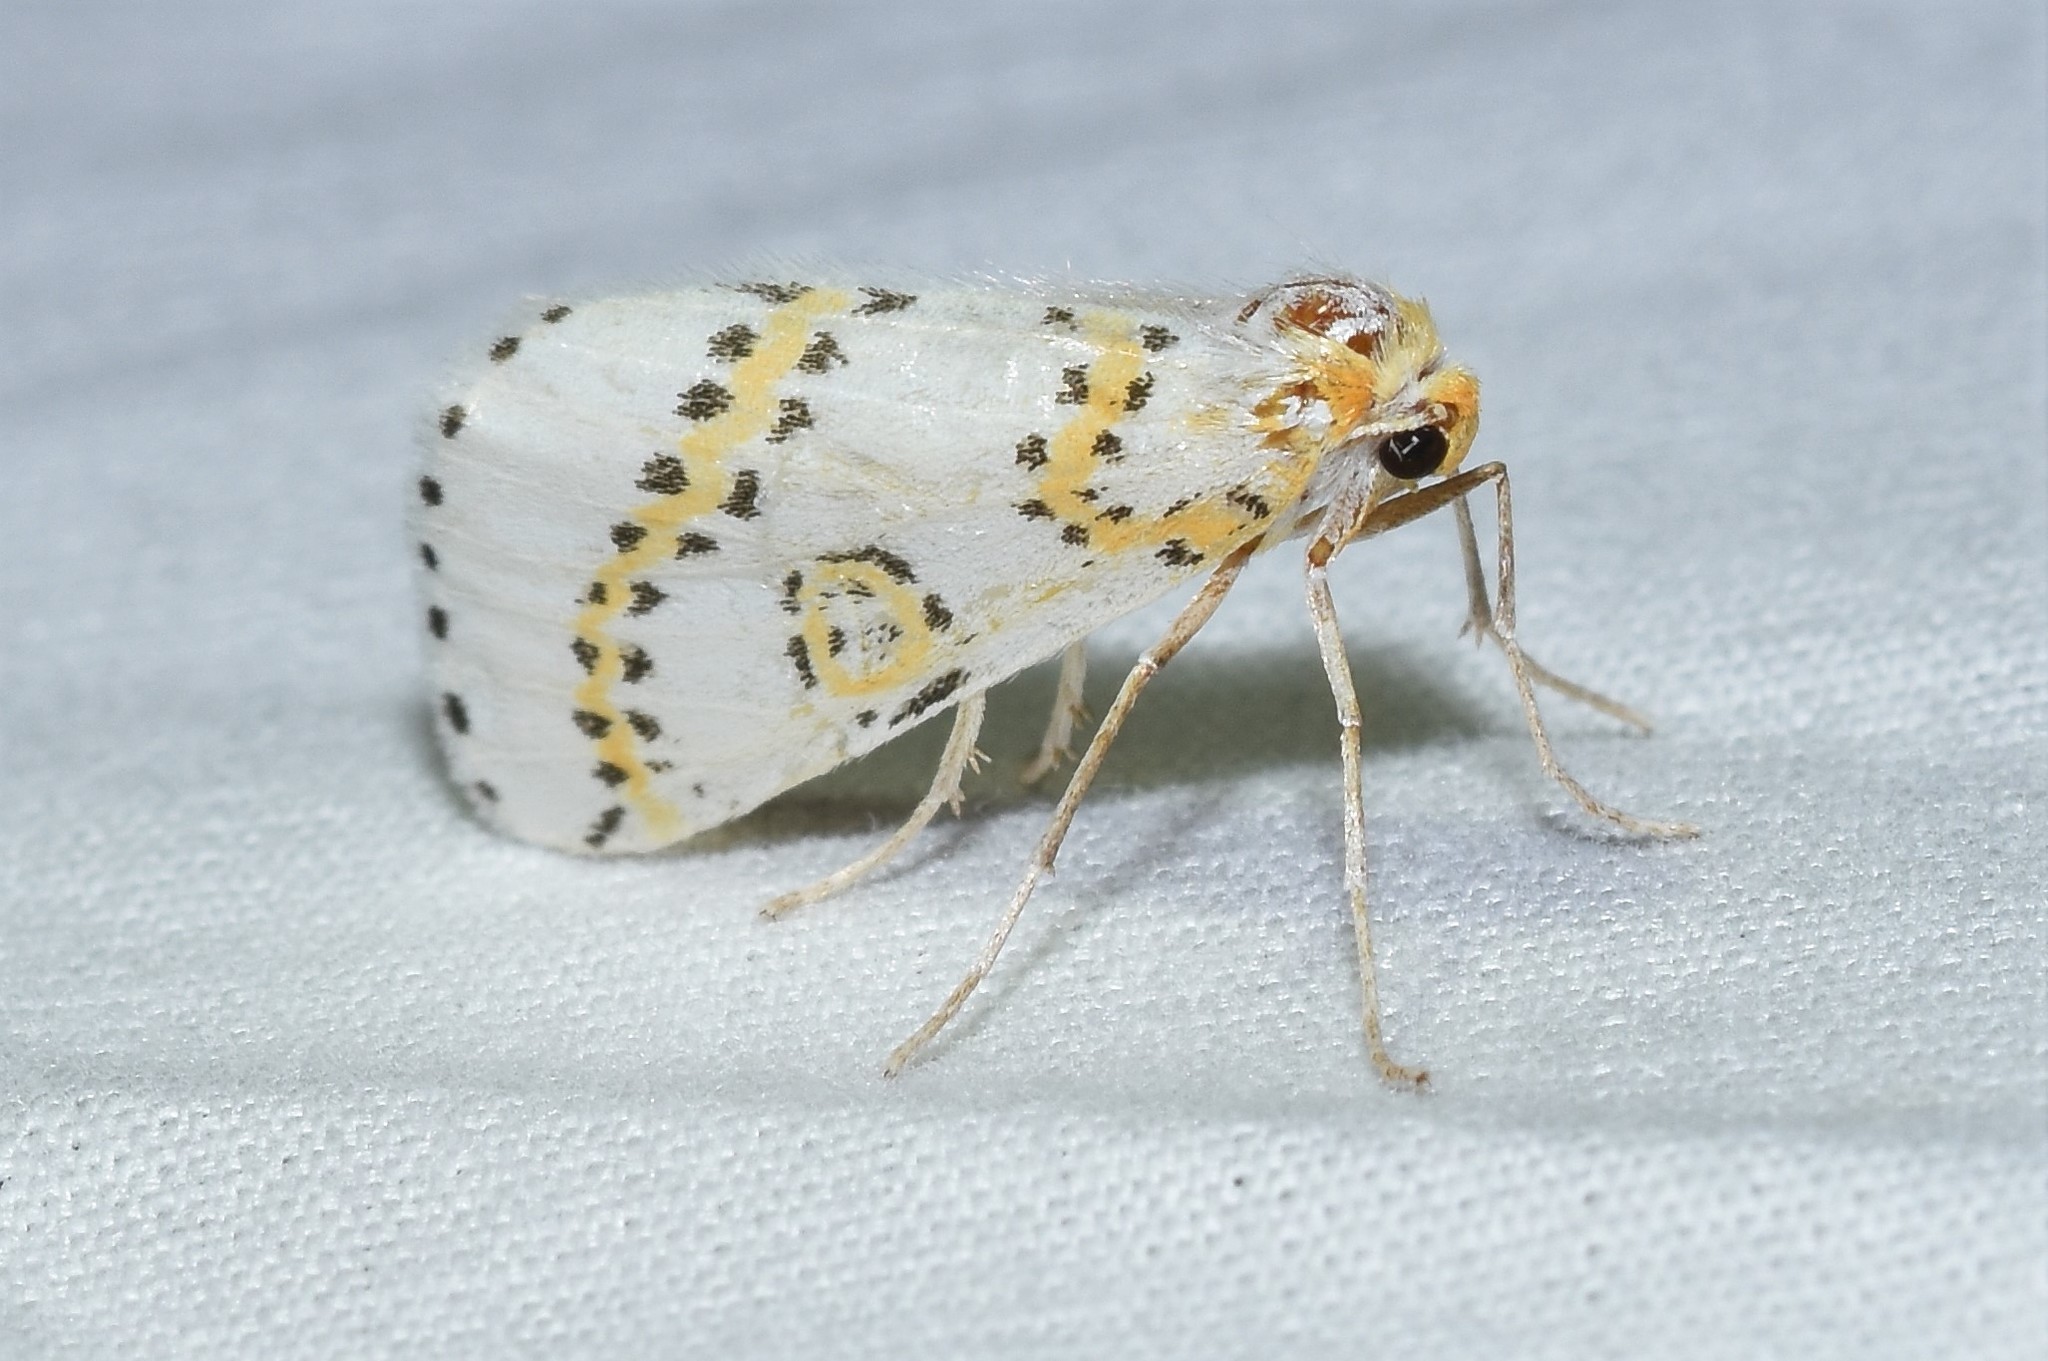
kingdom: Animalia
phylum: Arthropoda
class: Insecta
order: Lepidoptera
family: Geometridae
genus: Philtraea
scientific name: Philtraea monillata
